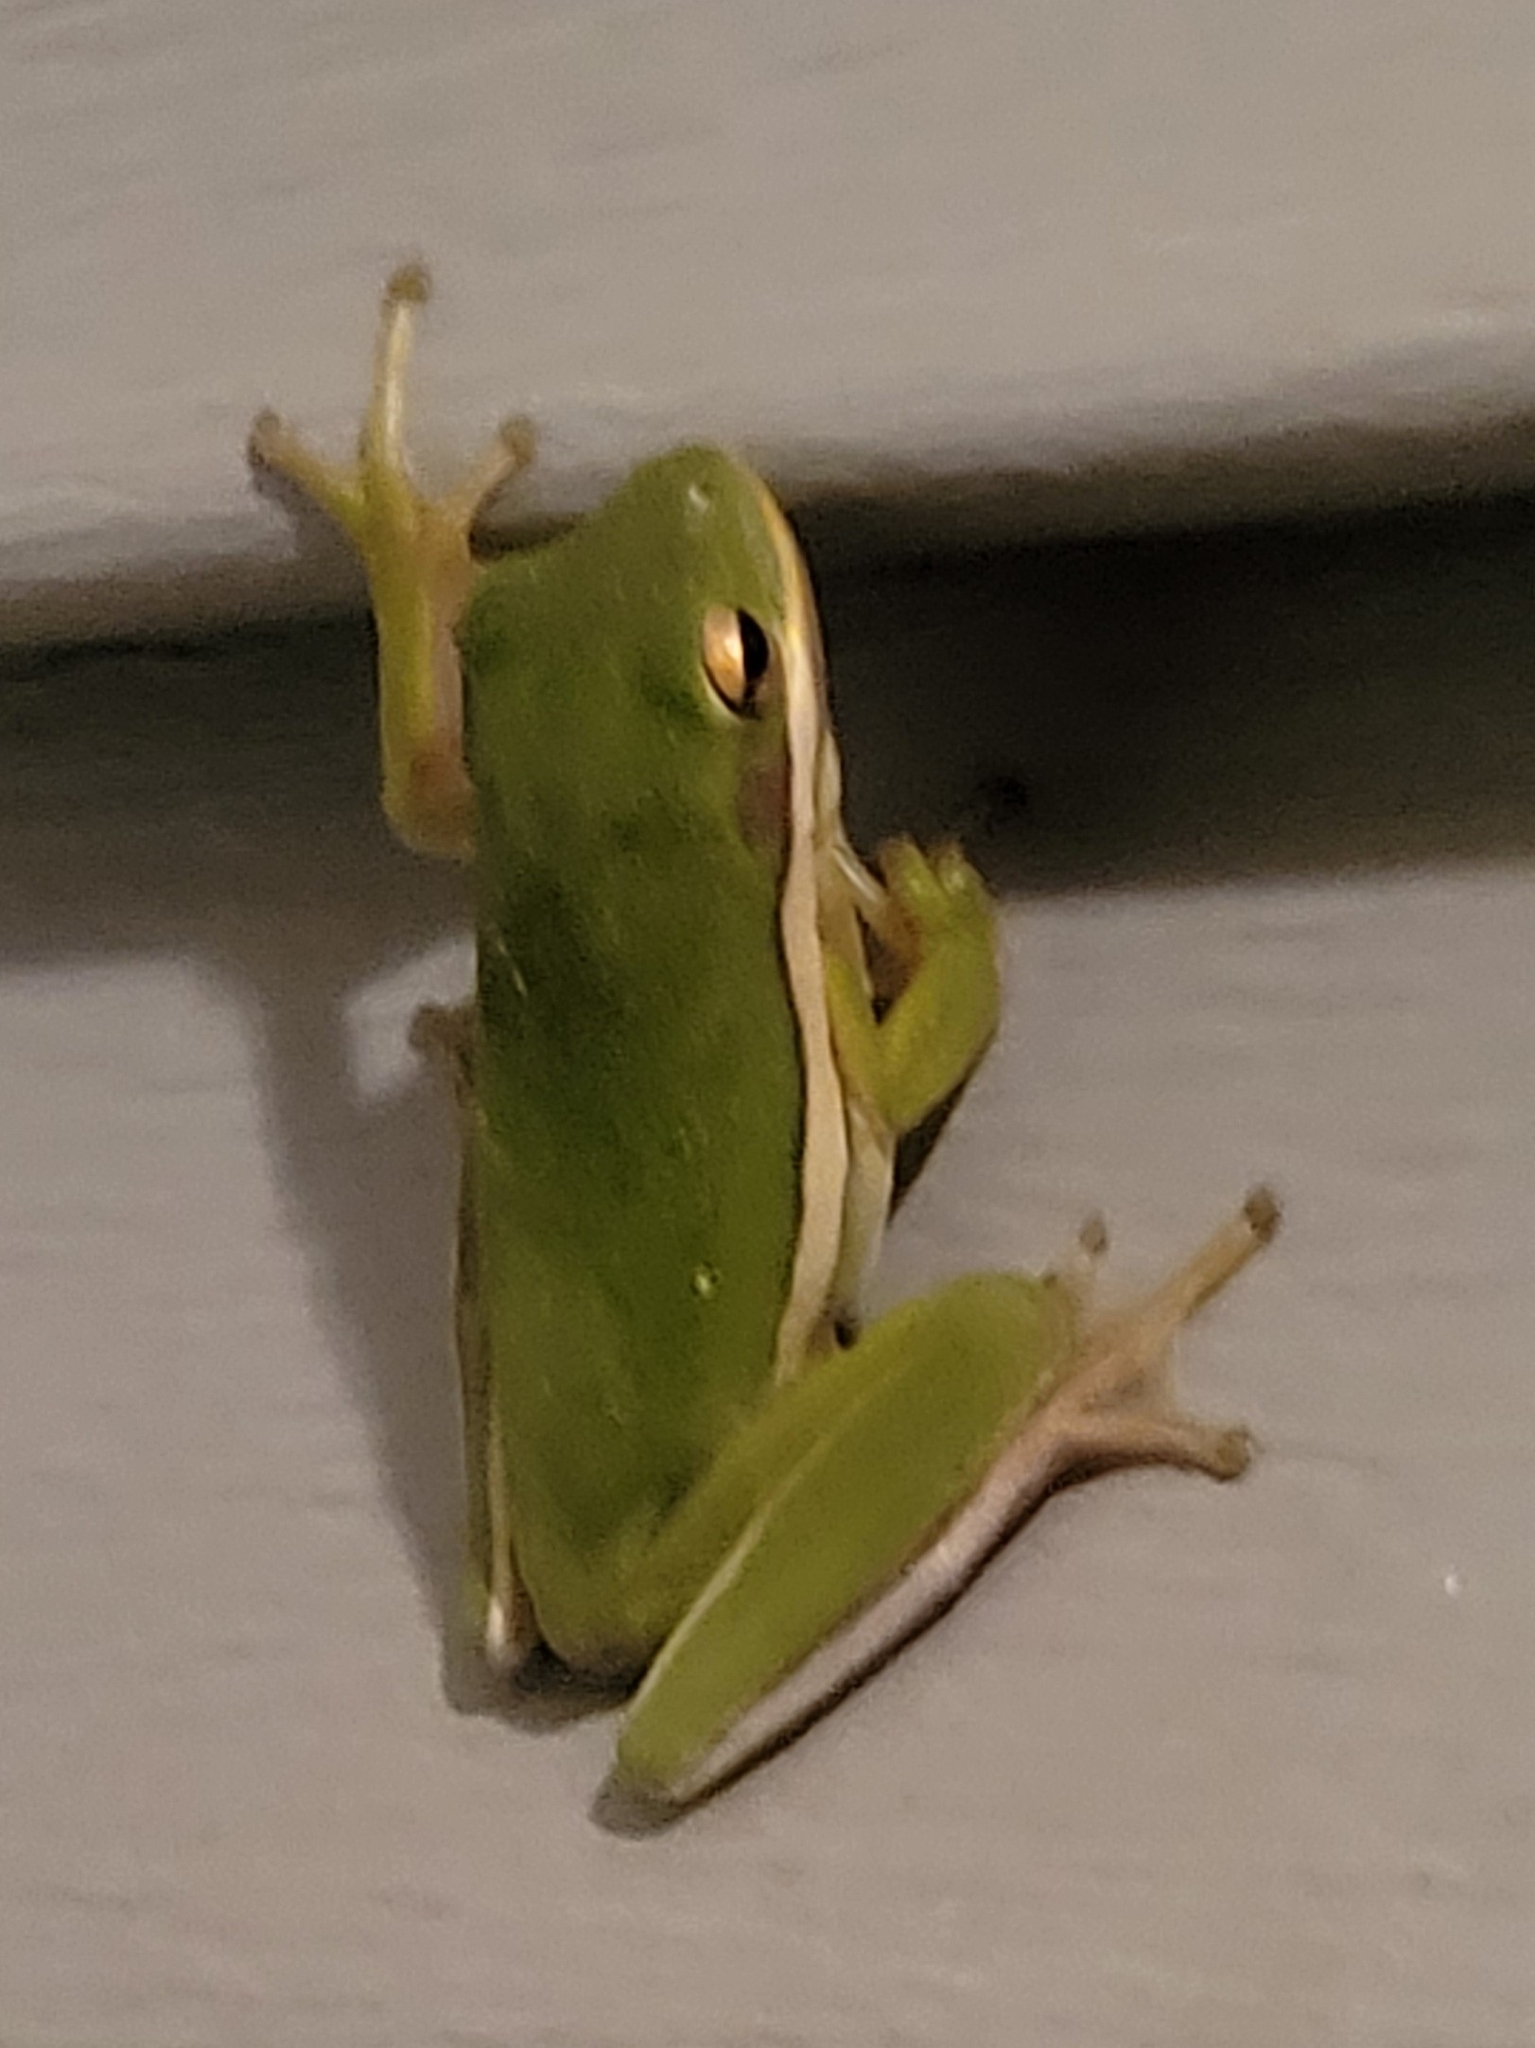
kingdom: Animalia
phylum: Chordata
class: Amphibia
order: Anura
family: Hylidae
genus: Dryophytes
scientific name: Dryophytes cinereus
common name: Green treefrog
